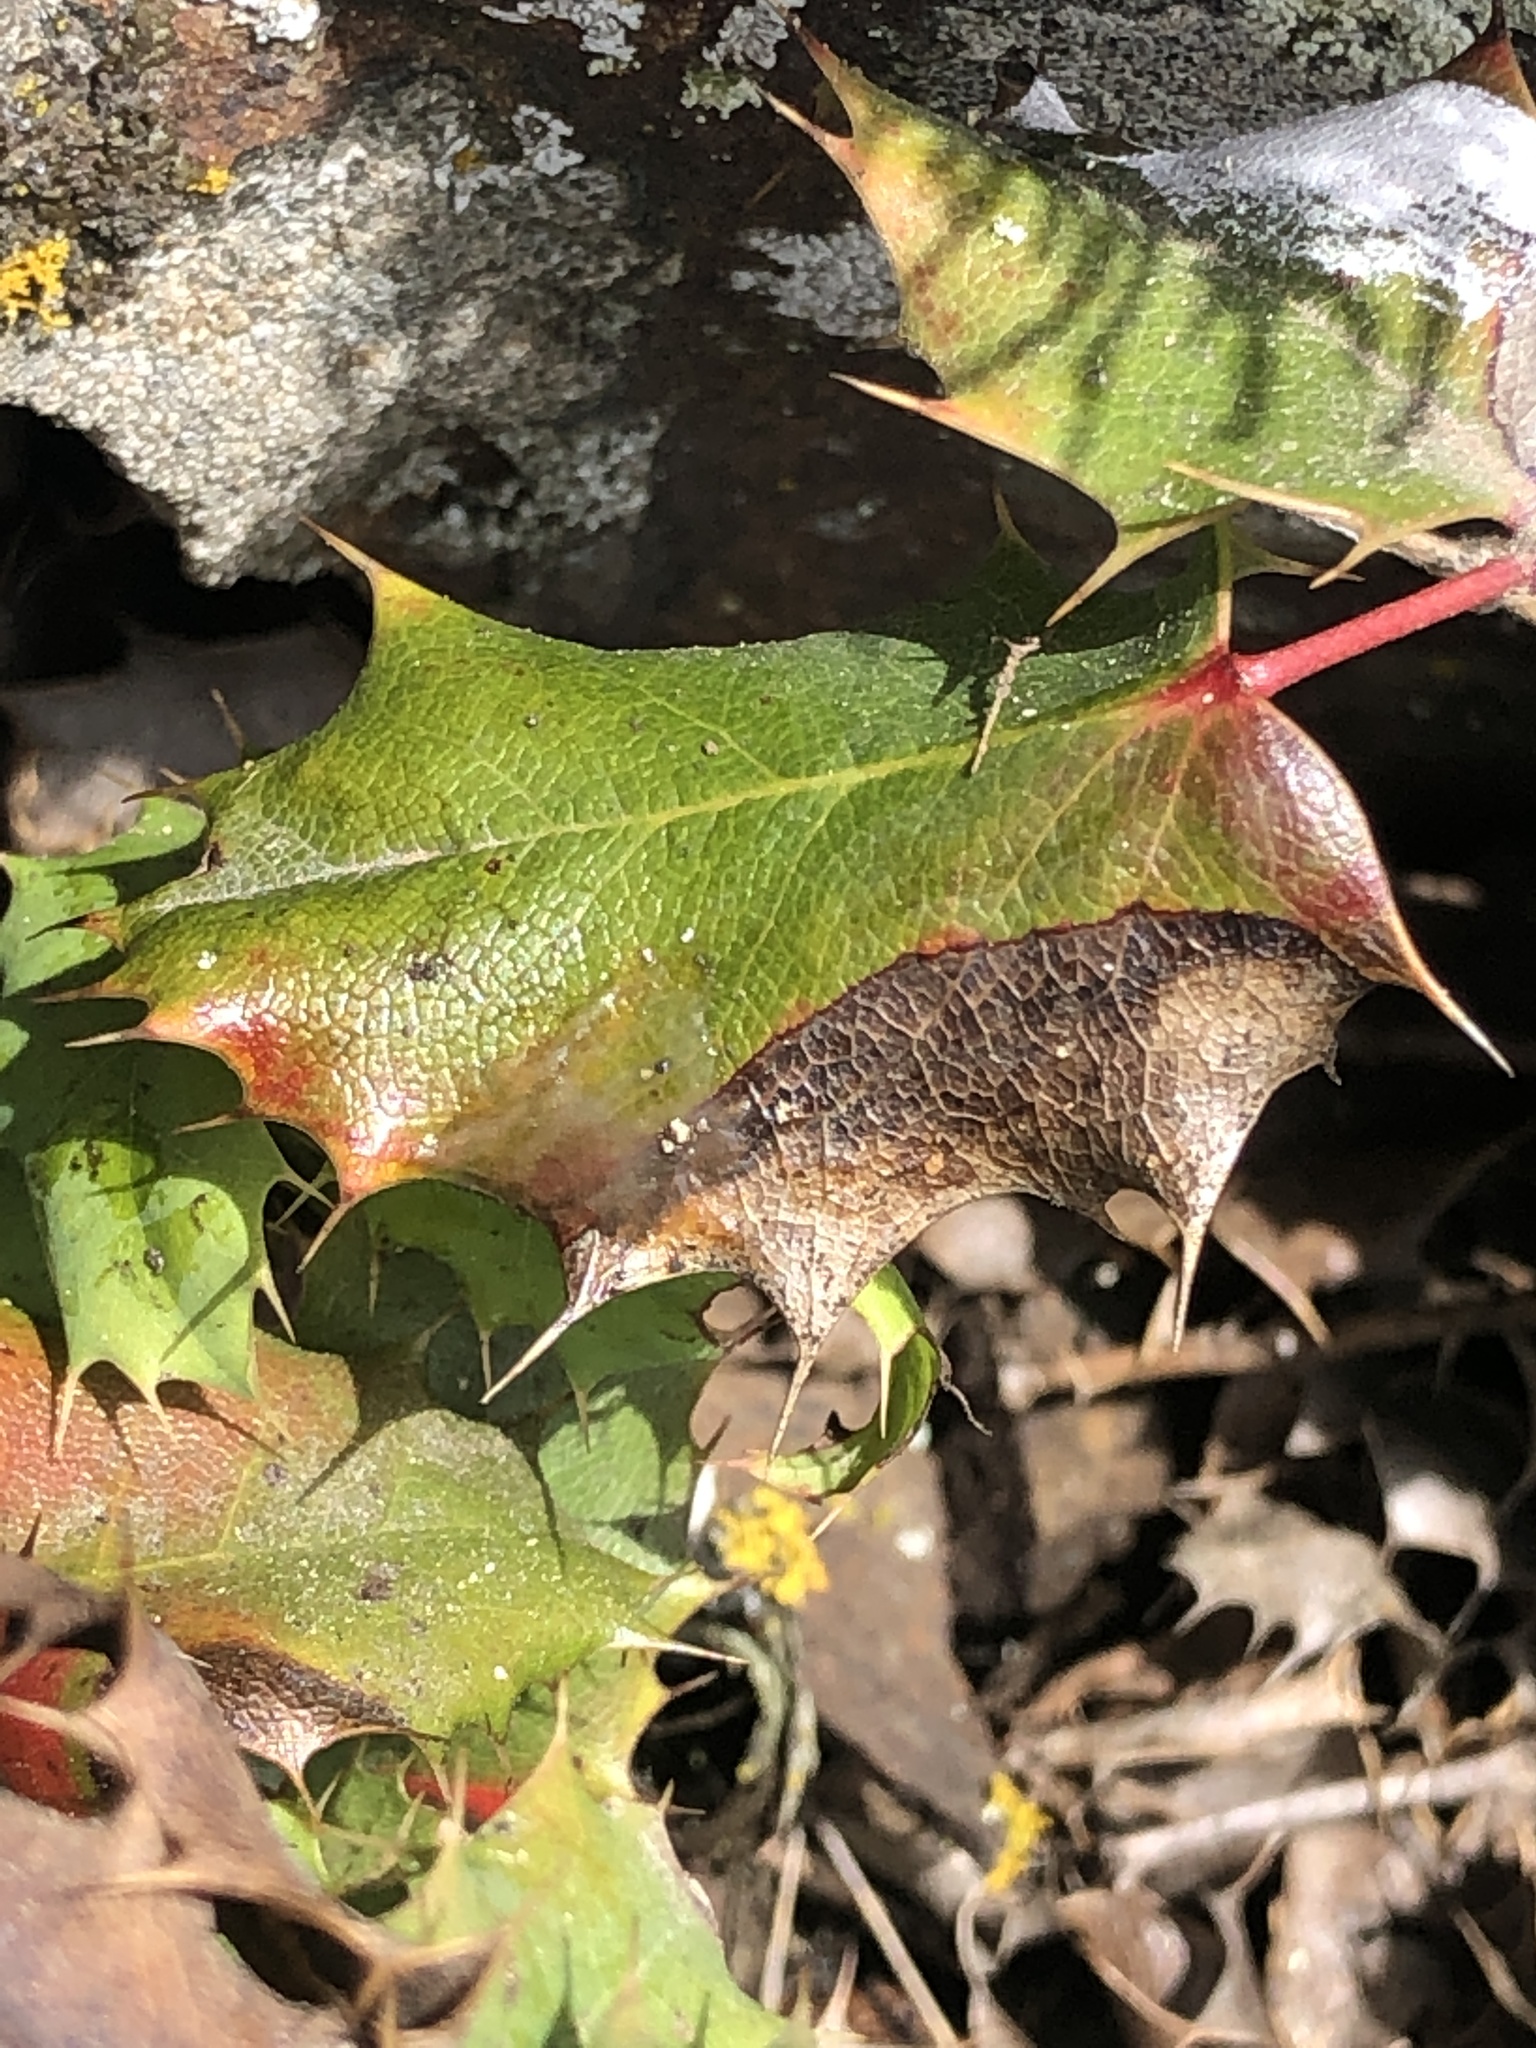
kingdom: Plantae
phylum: Tracheophyta
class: Magnoliopsida
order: Ranunculales
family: Berberidaceae
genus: Mahonia
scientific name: Mahonia
